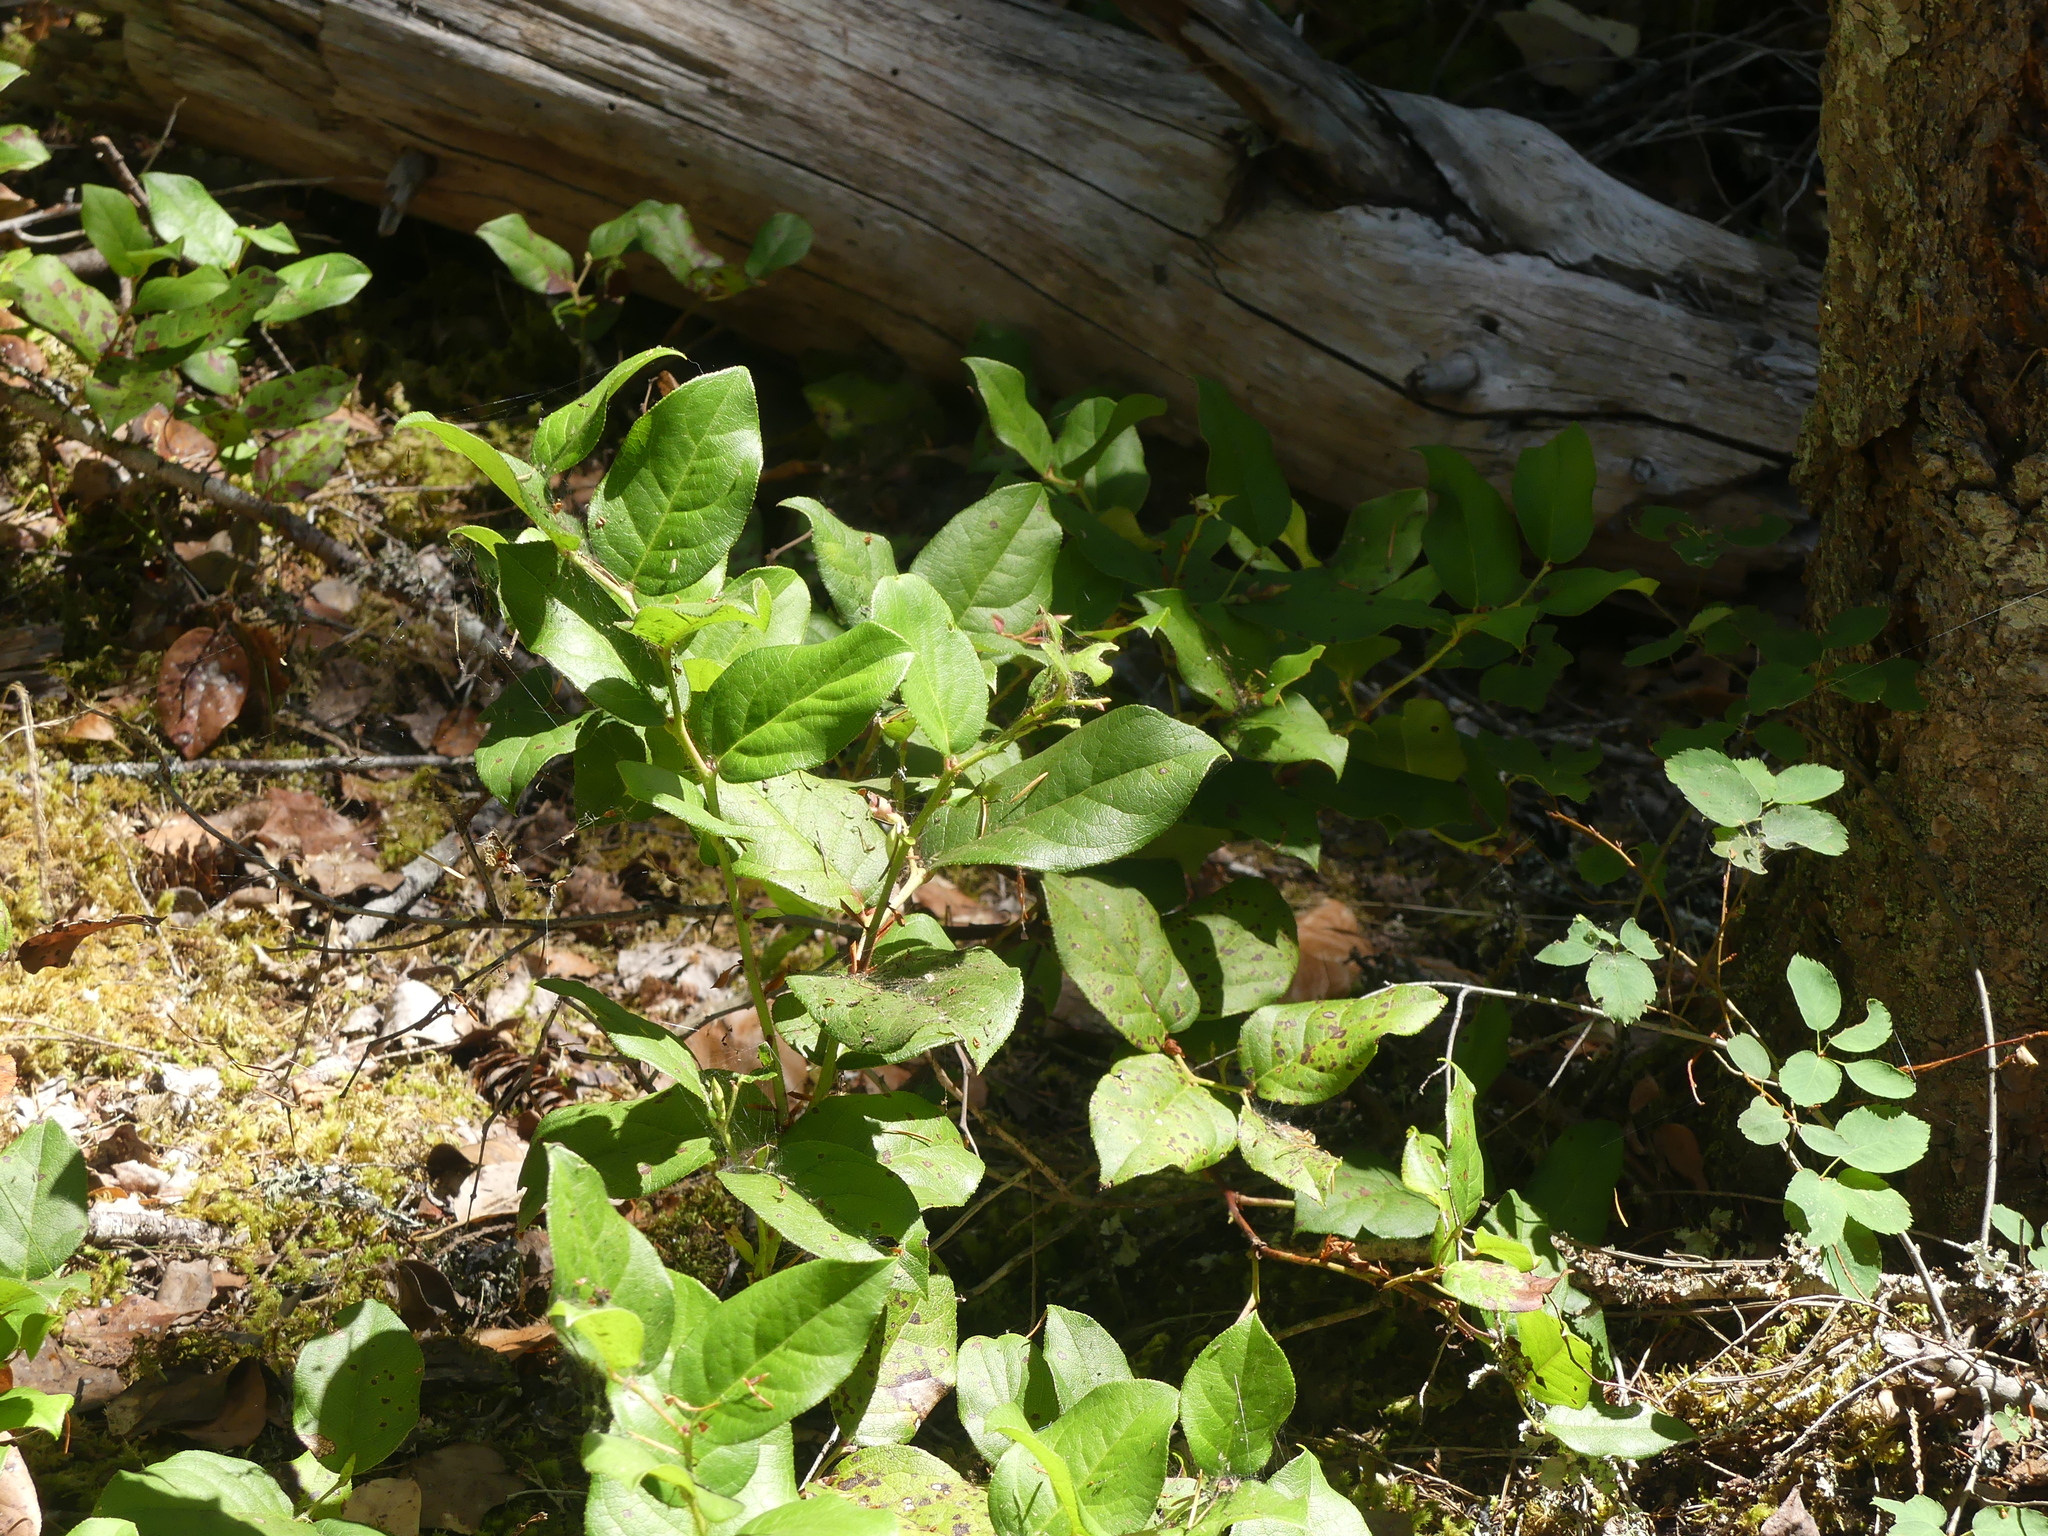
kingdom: Plantae
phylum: Tracheophyta
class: Magnoliopsida
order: Ericales
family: Ericaceae
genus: Gaultheria
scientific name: Gaultheria shallon
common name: Shallon
